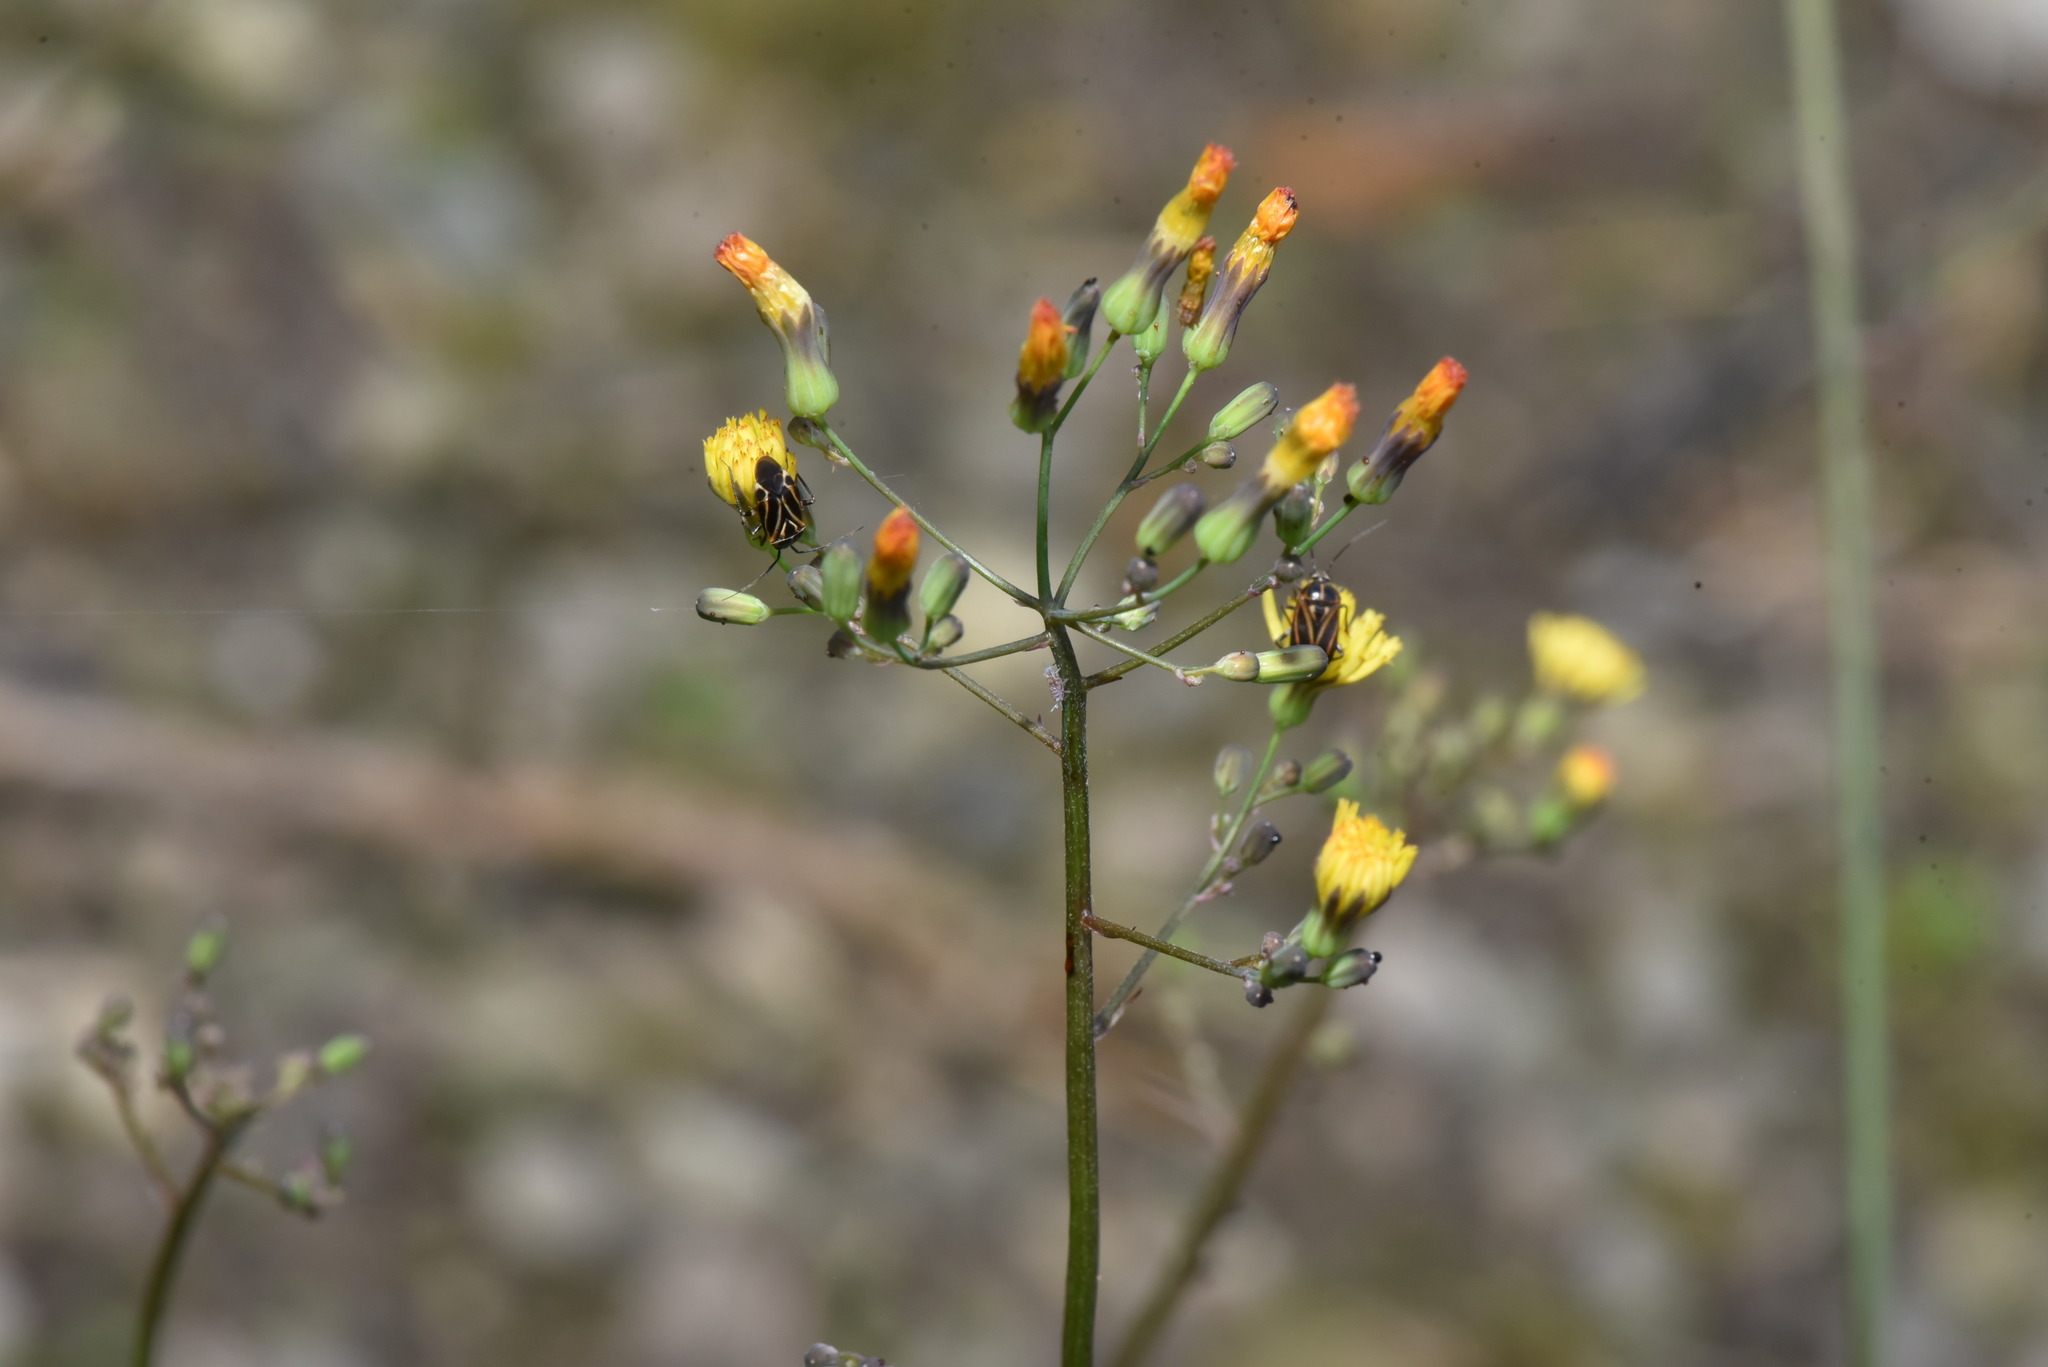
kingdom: Plantae
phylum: Tracheophyta
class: Magnoliopsida
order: Asterales
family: Asteraceae
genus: Youngia
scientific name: Youngia japonica
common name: Oriental false hawksbeard
